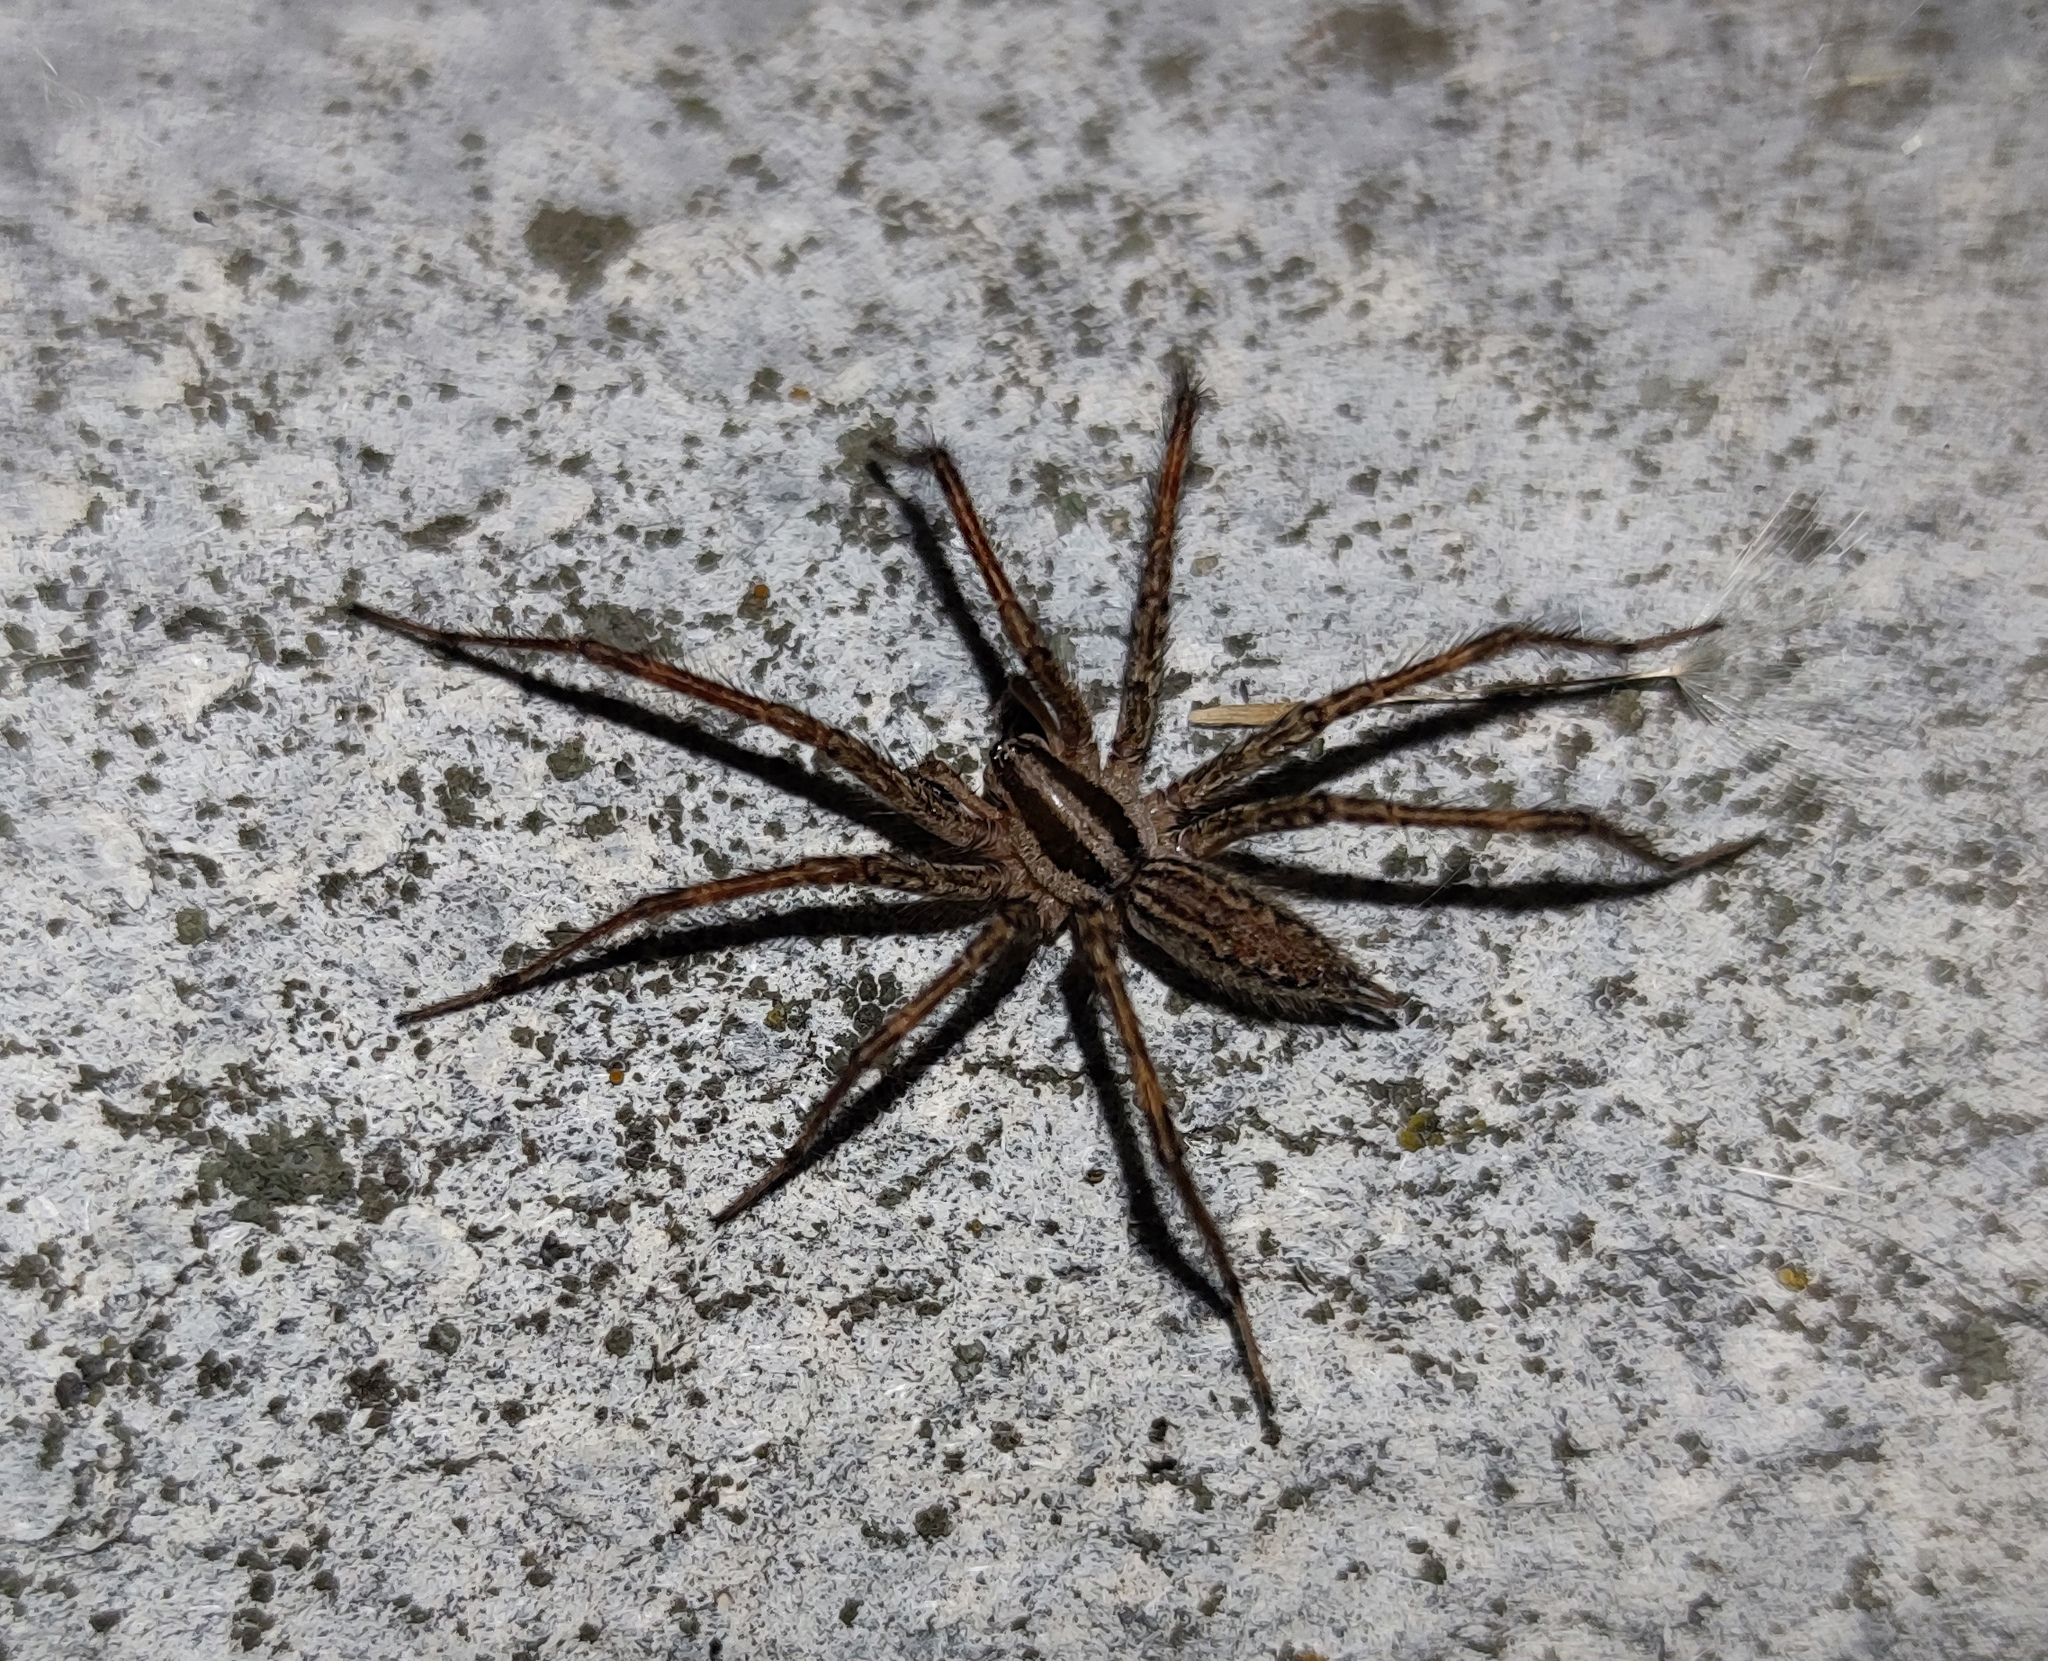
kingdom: Animalia
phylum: Arthropoda
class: Arachnida
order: Araneae
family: Agelenidae
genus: Agelenopsis
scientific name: Agelenopsis potteri
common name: Potter's grass spider
